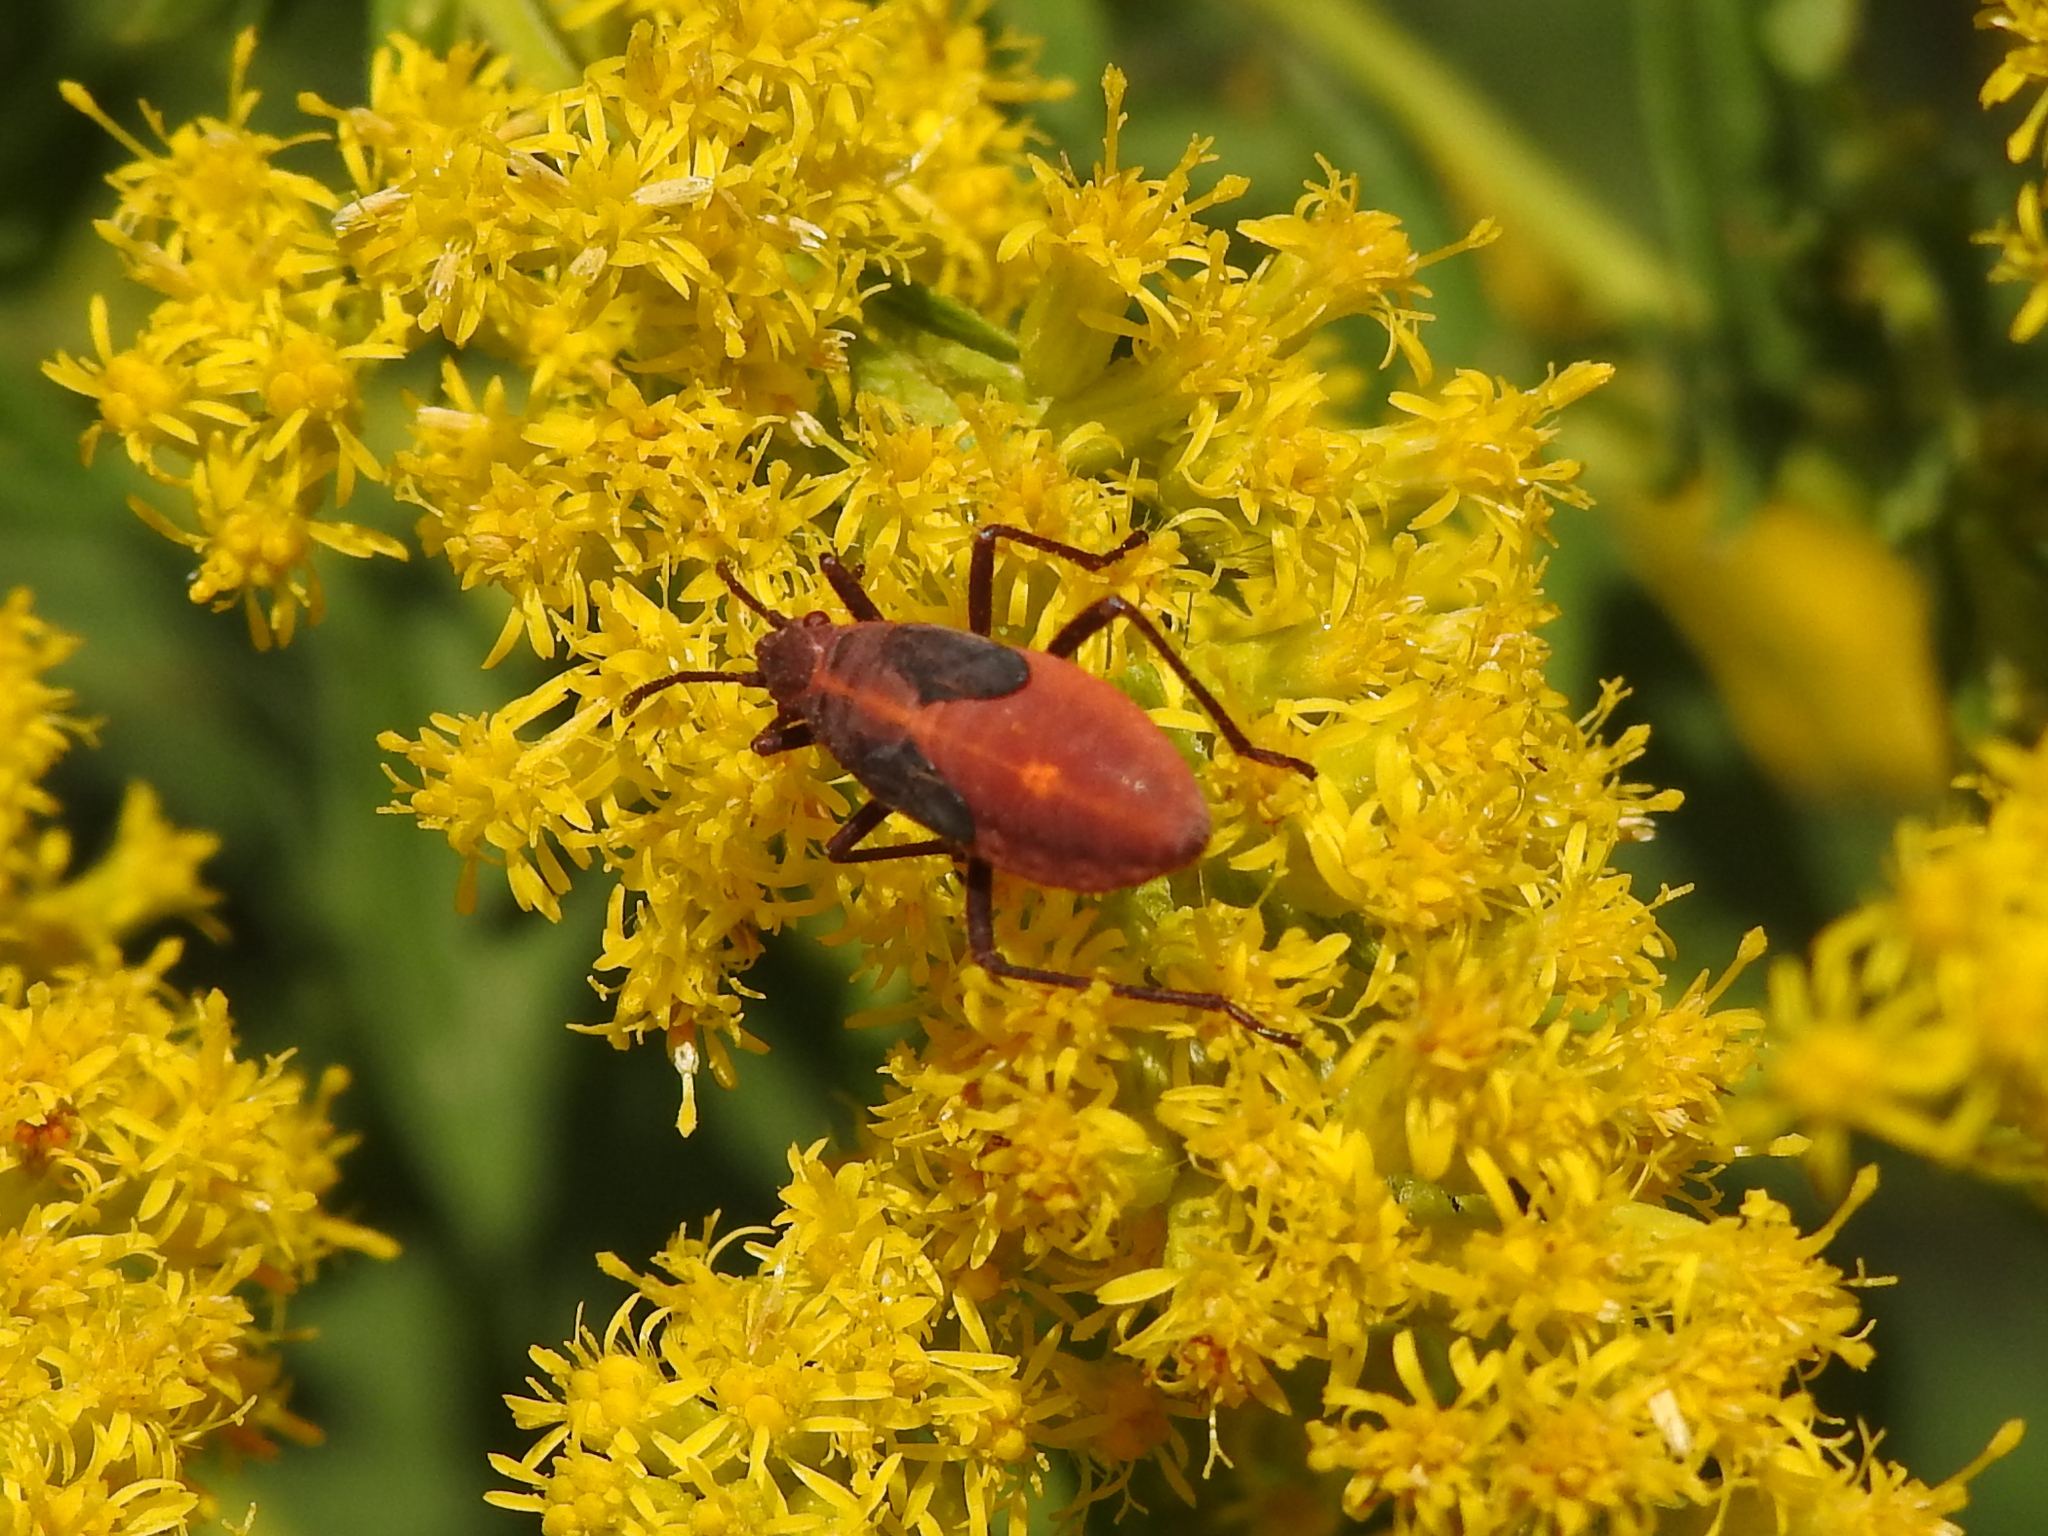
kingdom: Animalia
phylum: Arthropoda
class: Insecta
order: Hemiptera
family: Rhopalidae
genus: Boisea
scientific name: Boisea trivittata
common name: Boxelder bug
